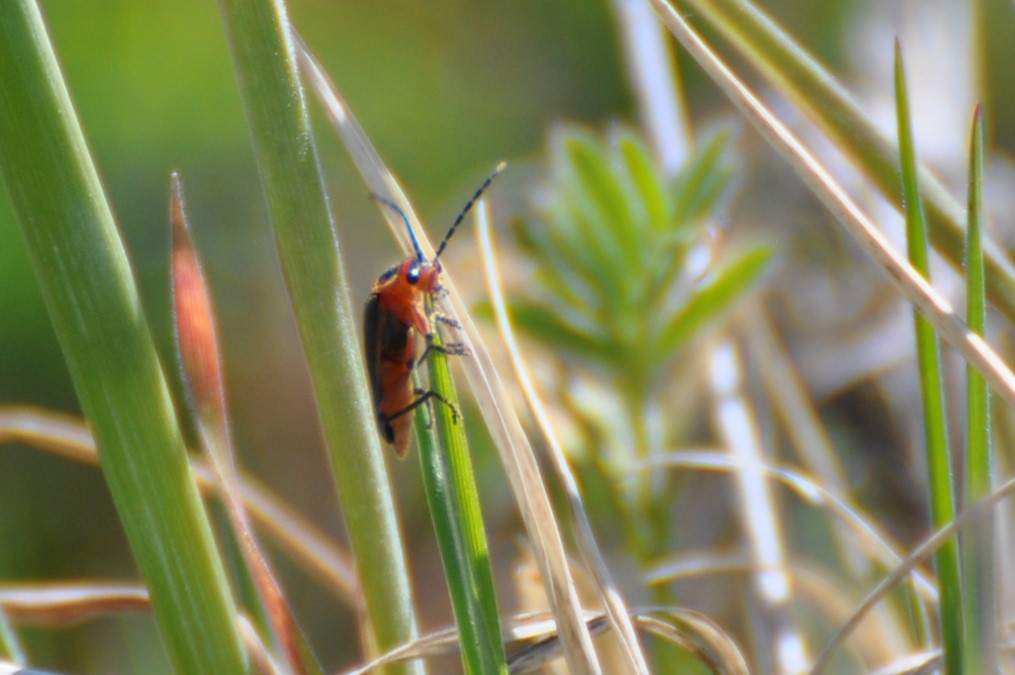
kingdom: Animalia
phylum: Arthropoda
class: Insecta
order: Coleoptera
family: Cantharidae
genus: Atalantycha
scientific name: Atalantycha bilineata
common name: Two-lined leatherwing
